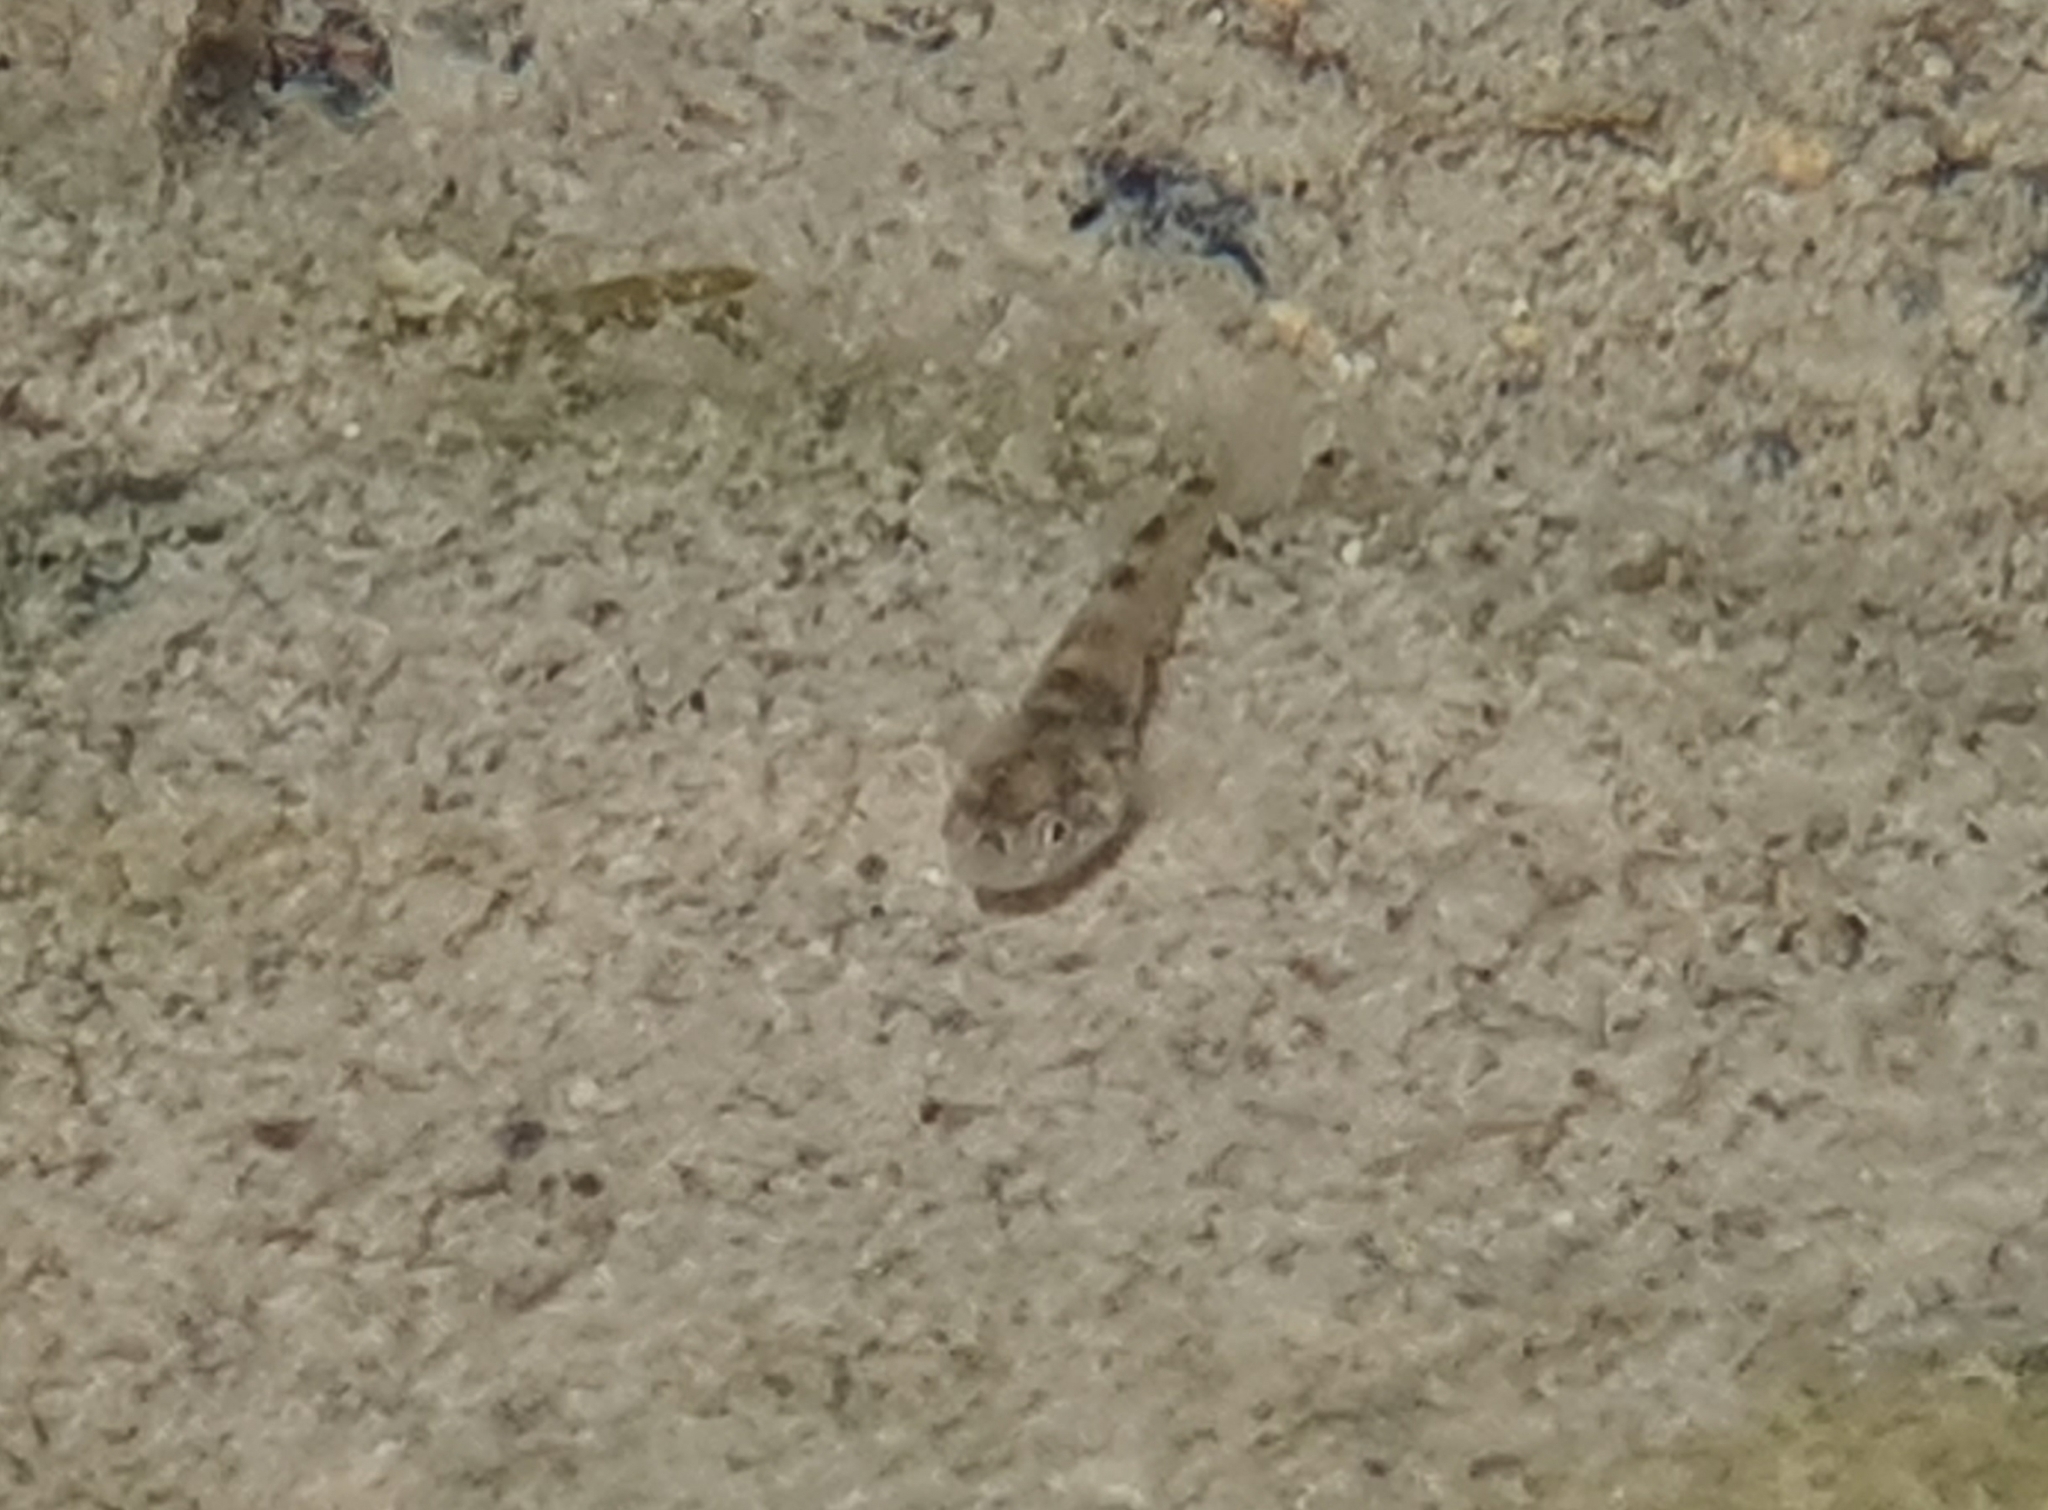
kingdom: Animalia
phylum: Chordata
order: Perciformes
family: Eleotridae
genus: Gobiomorphus
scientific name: Gobiomorphus mataraerore
